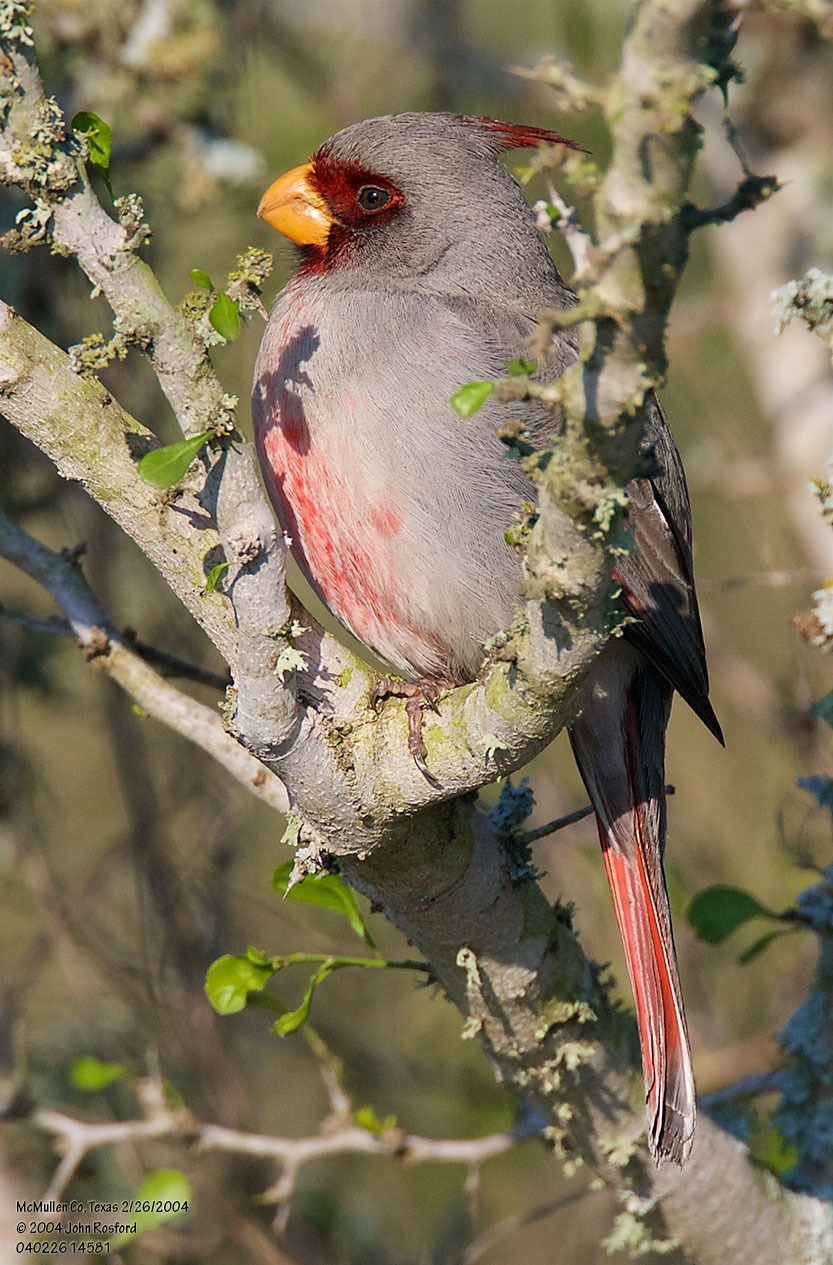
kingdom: Animalia
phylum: Chordata
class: Aves
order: Passeriformes
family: Cardinalidae
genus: Cardinalis
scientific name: Cardinalis sinuatus
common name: Pyrrhuloxia
